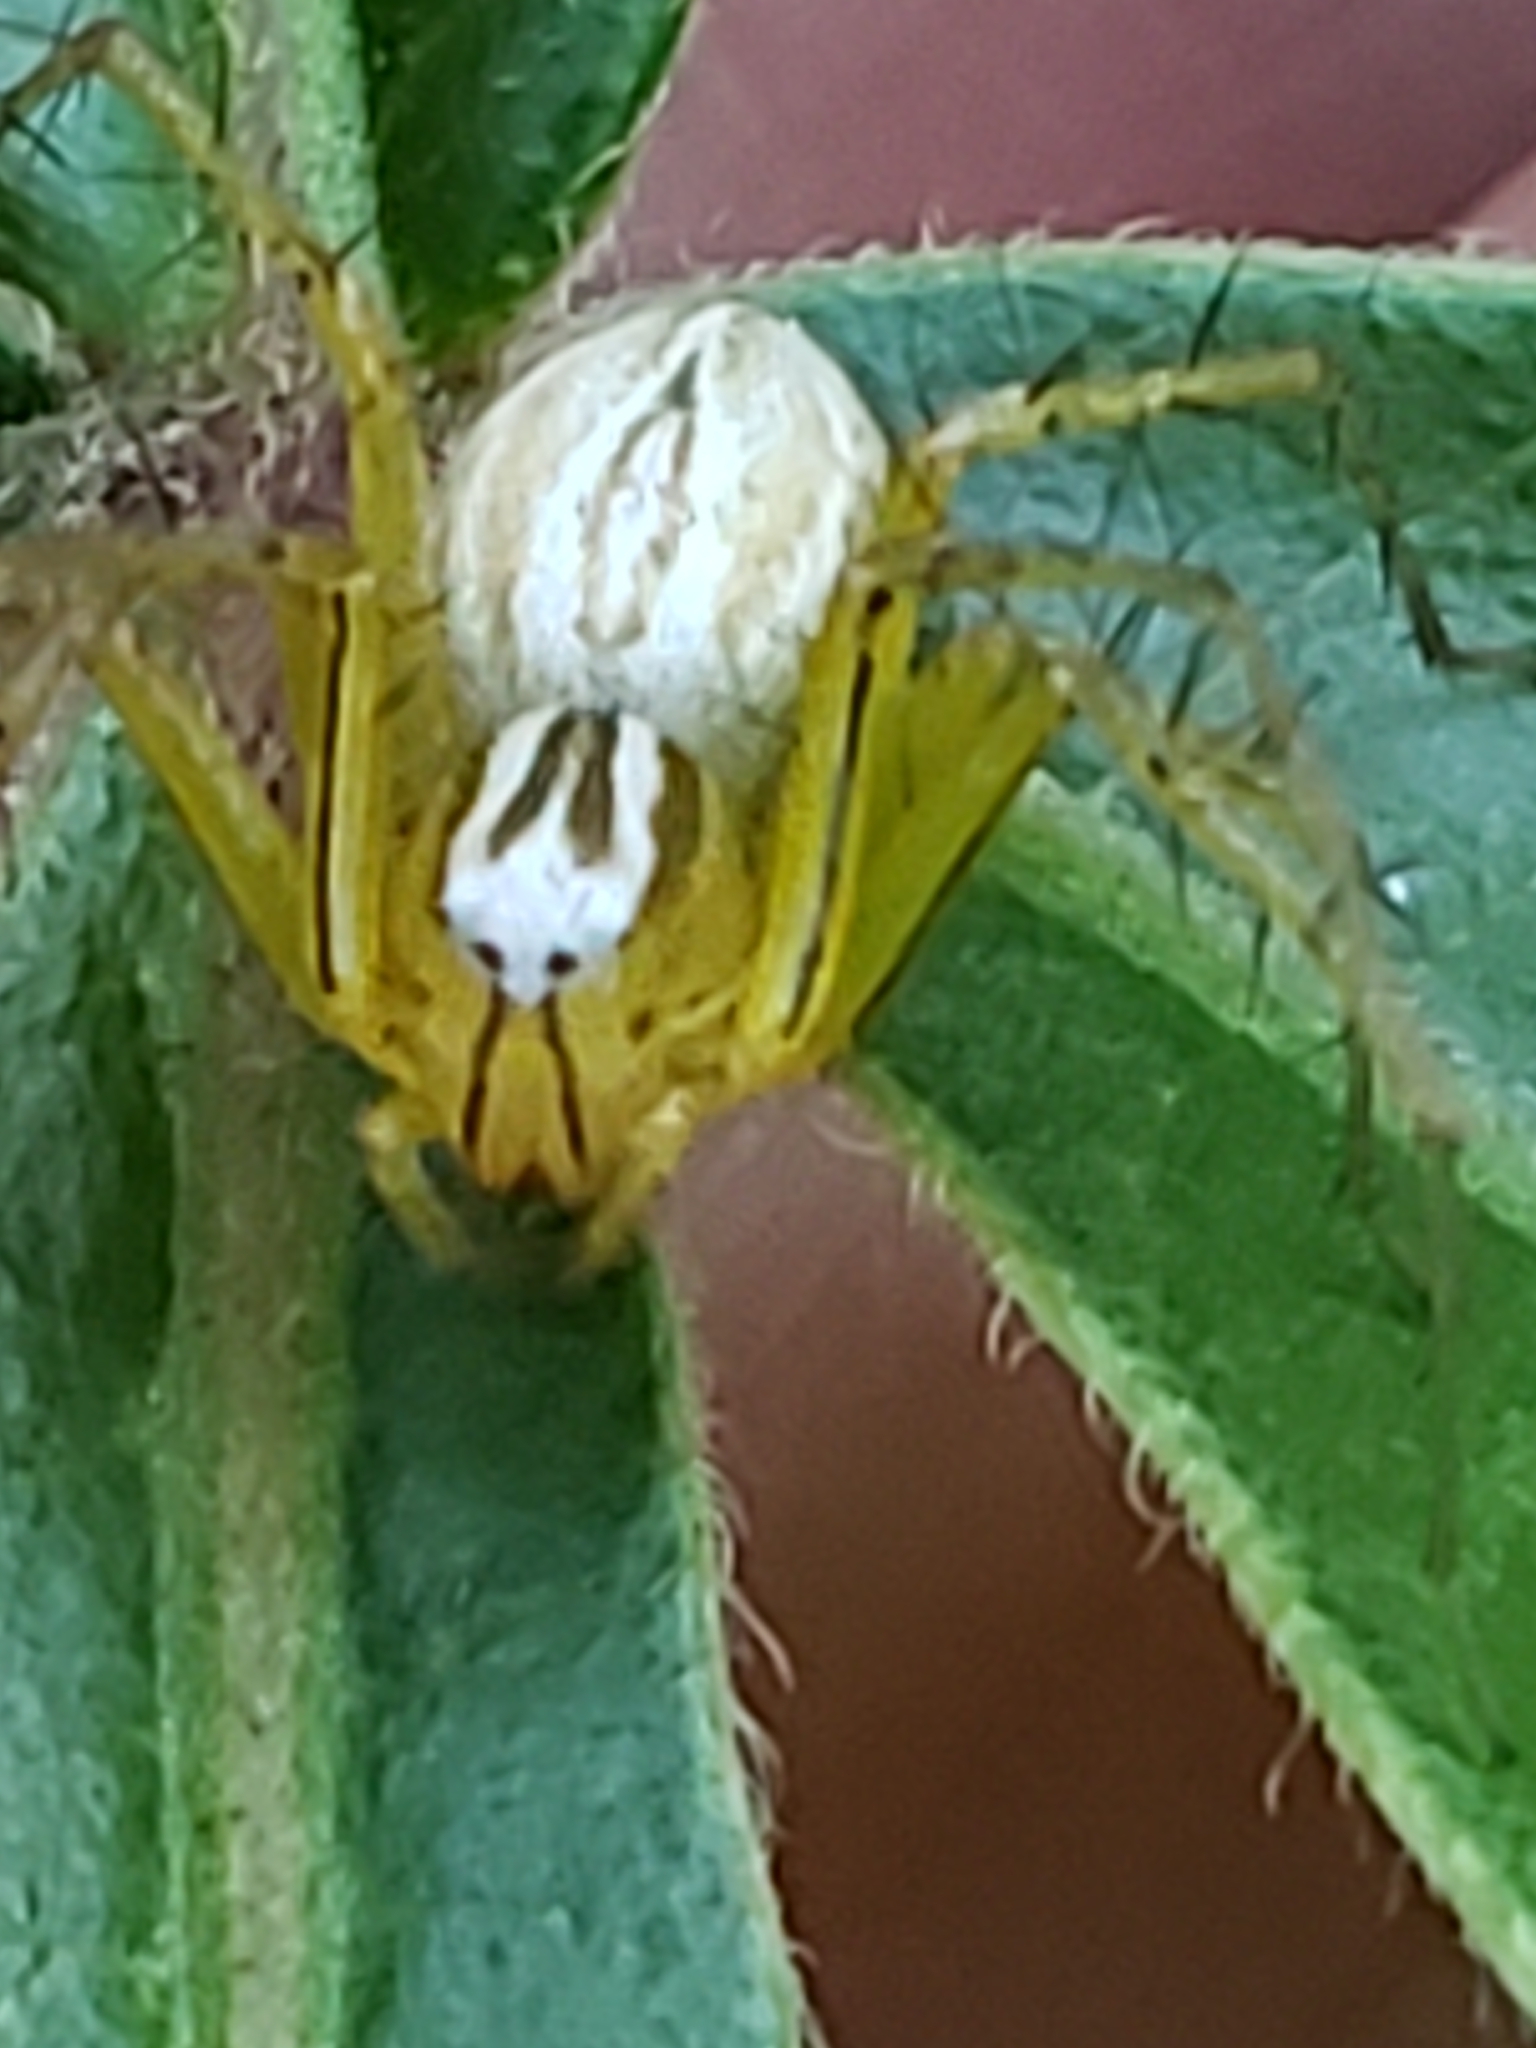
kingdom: Animalia
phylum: Arthropoda
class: Arachnida
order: Araneae
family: Oxyopidae
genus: Oxyopes
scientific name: Oxyopes salticus
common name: Lynx spiders
